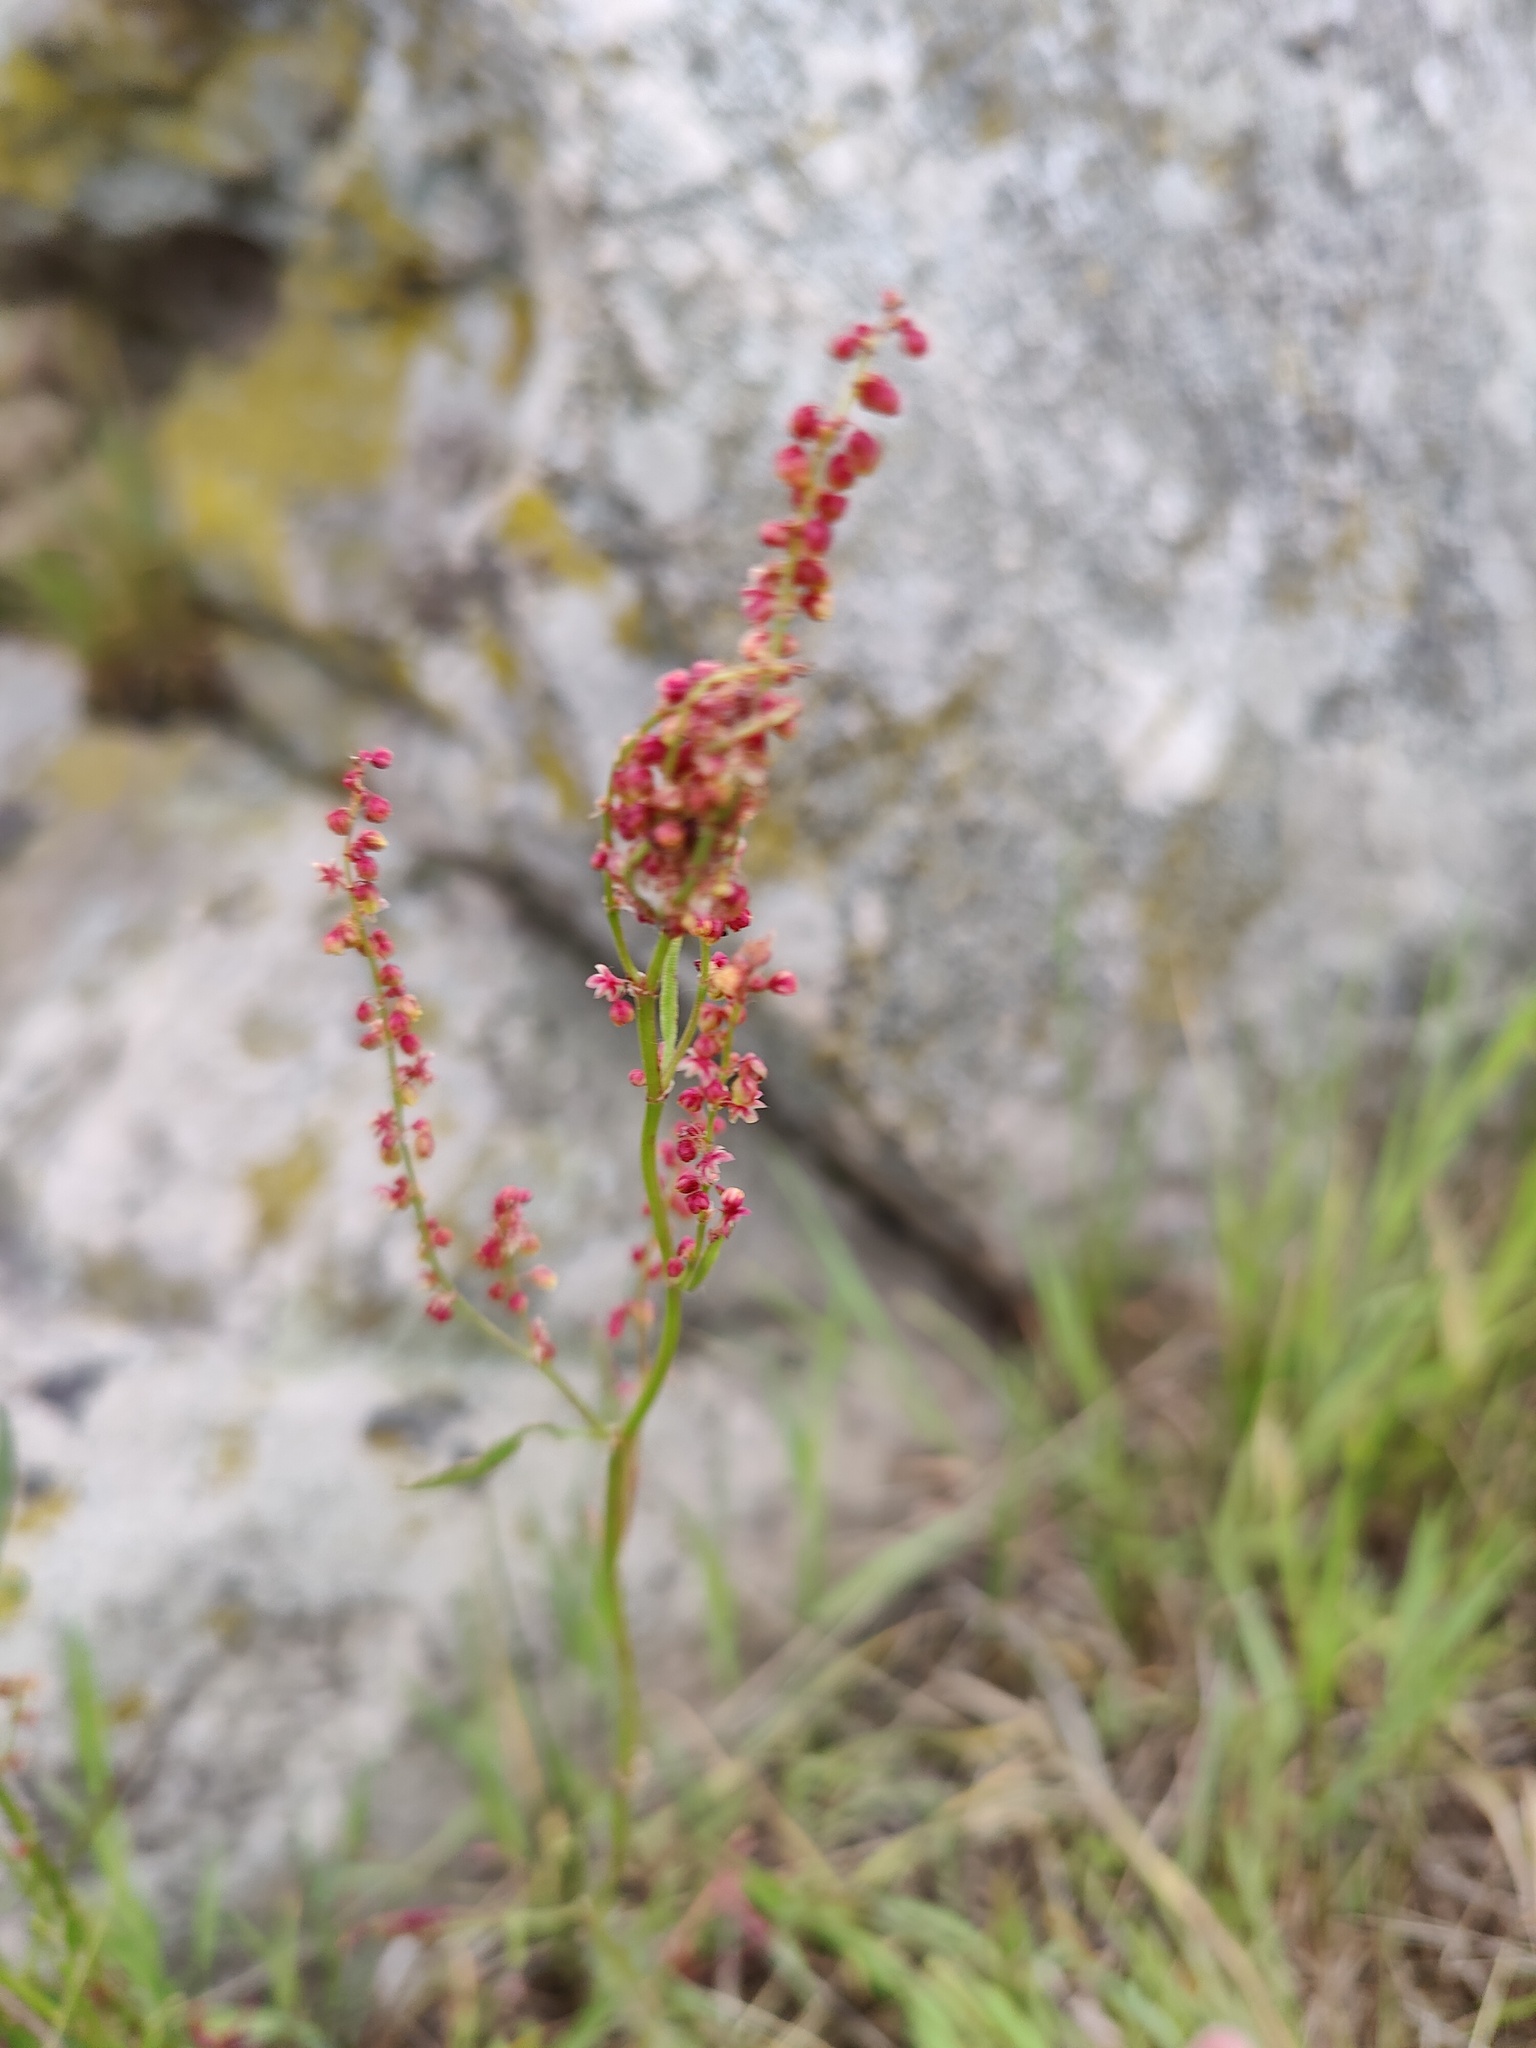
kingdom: Plantae
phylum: Tracheophyta
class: Magnoliopsida
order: Caryophyllales
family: Polygonaceae
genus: Rumex
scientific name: Rumex acetosella
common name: Common sheep sorrel
